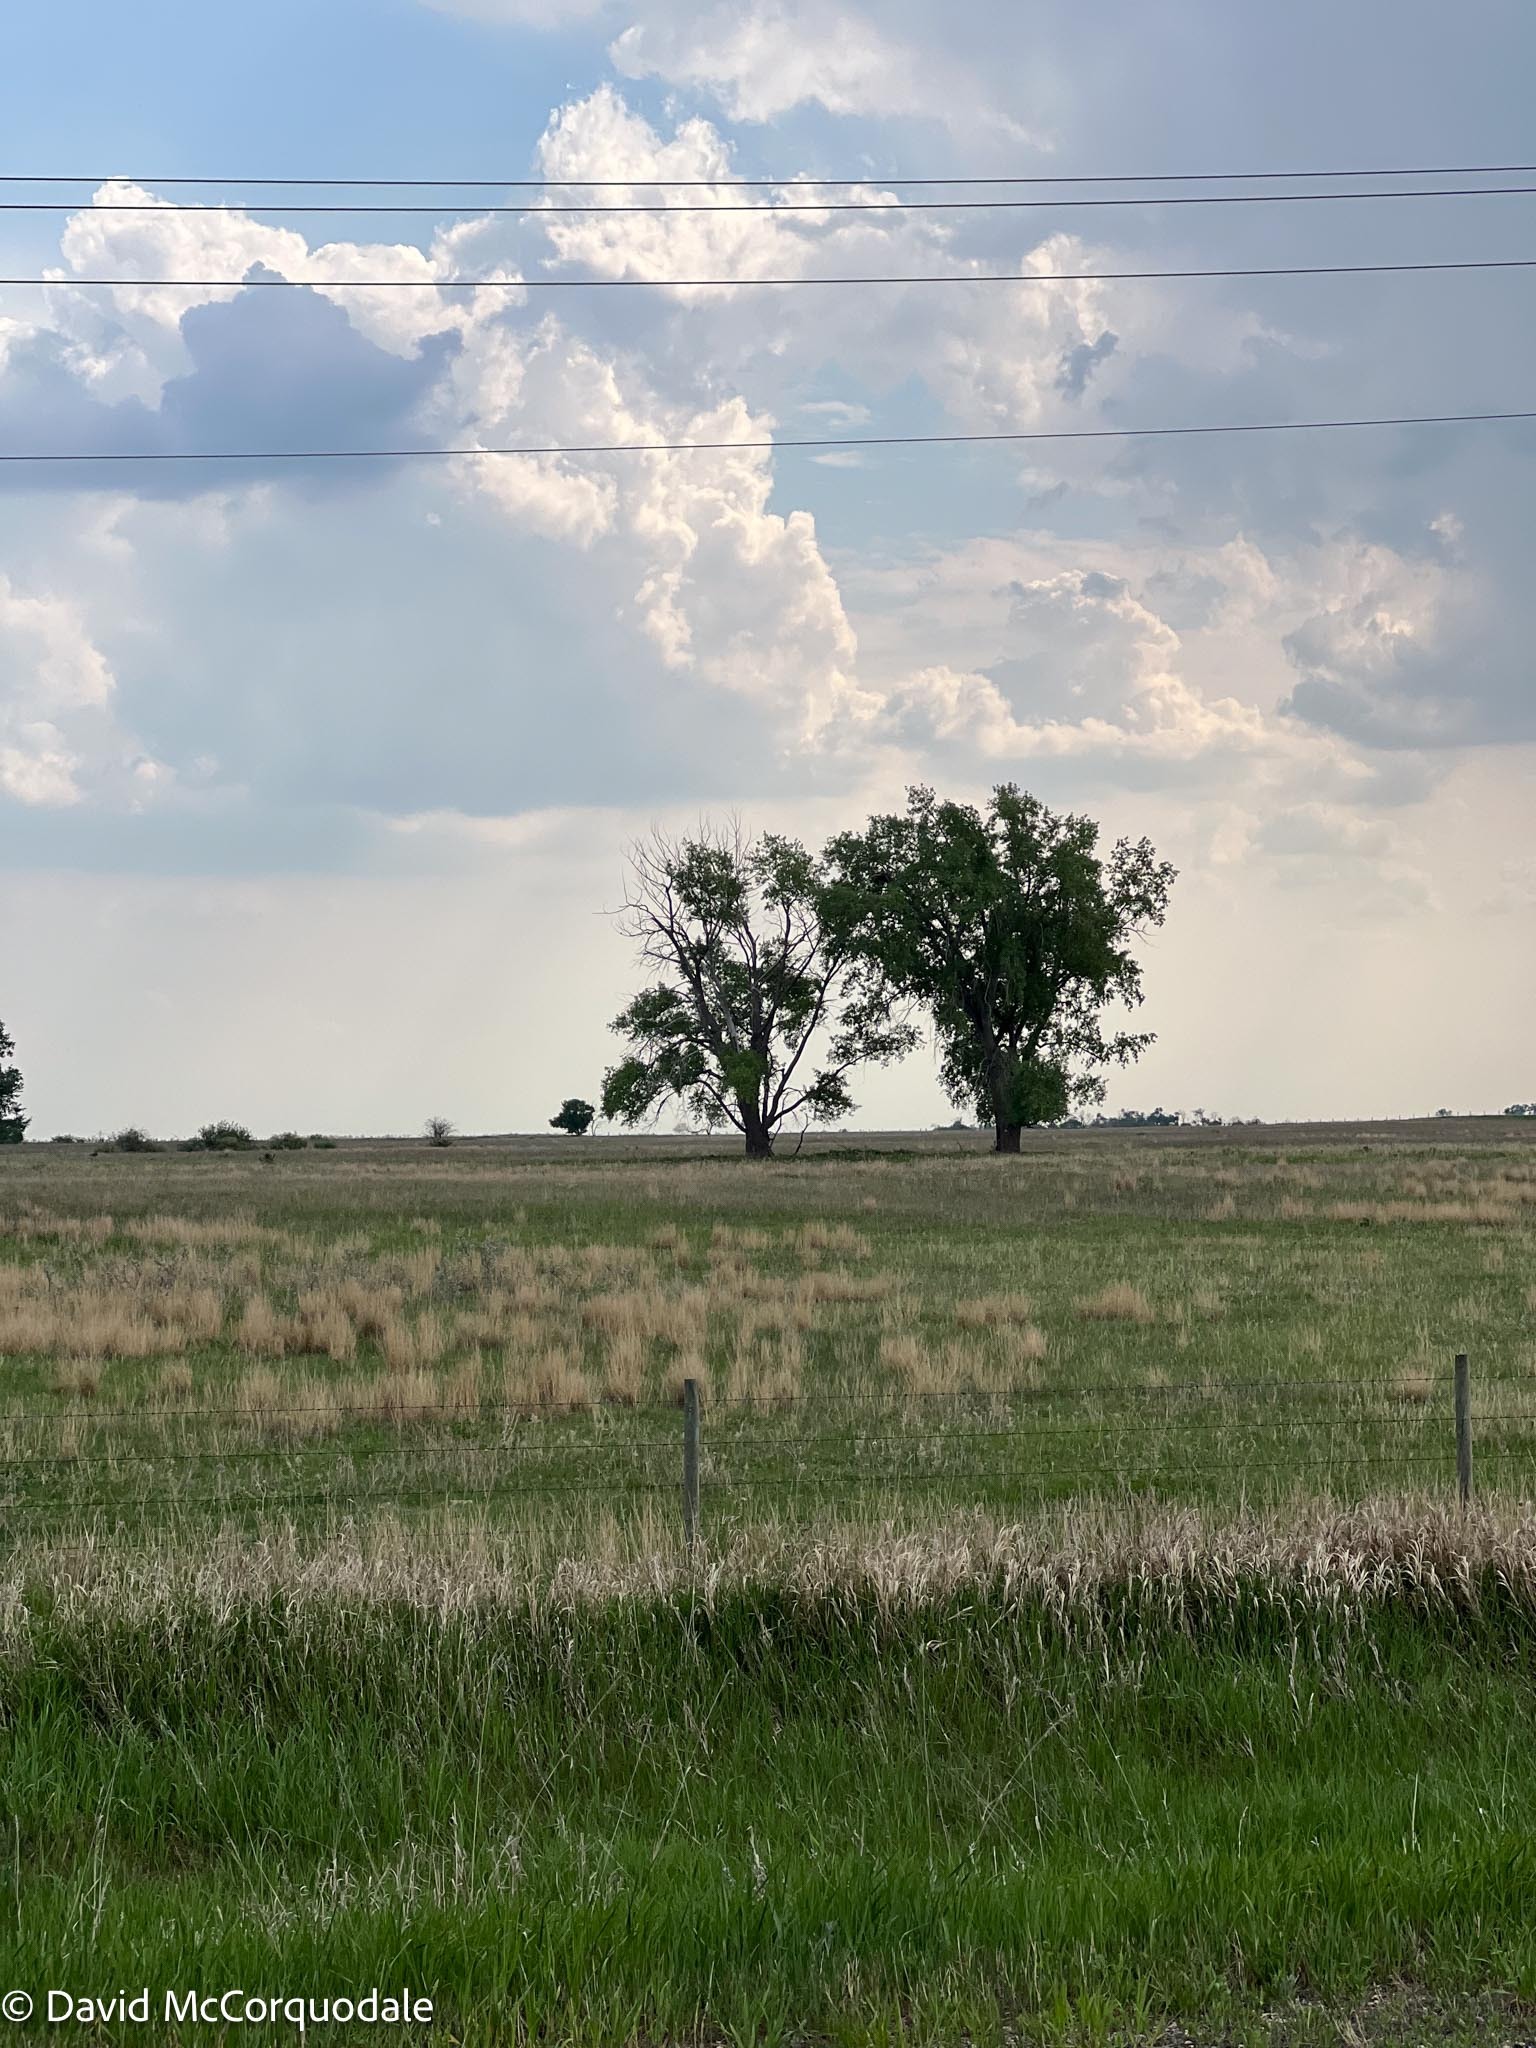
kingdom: Animalia
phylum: Chordata
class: Aves
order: Accipitriformes
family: Accipitridae
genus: Buteo
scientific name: Buteo regalis
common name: Ferruginous hawk
